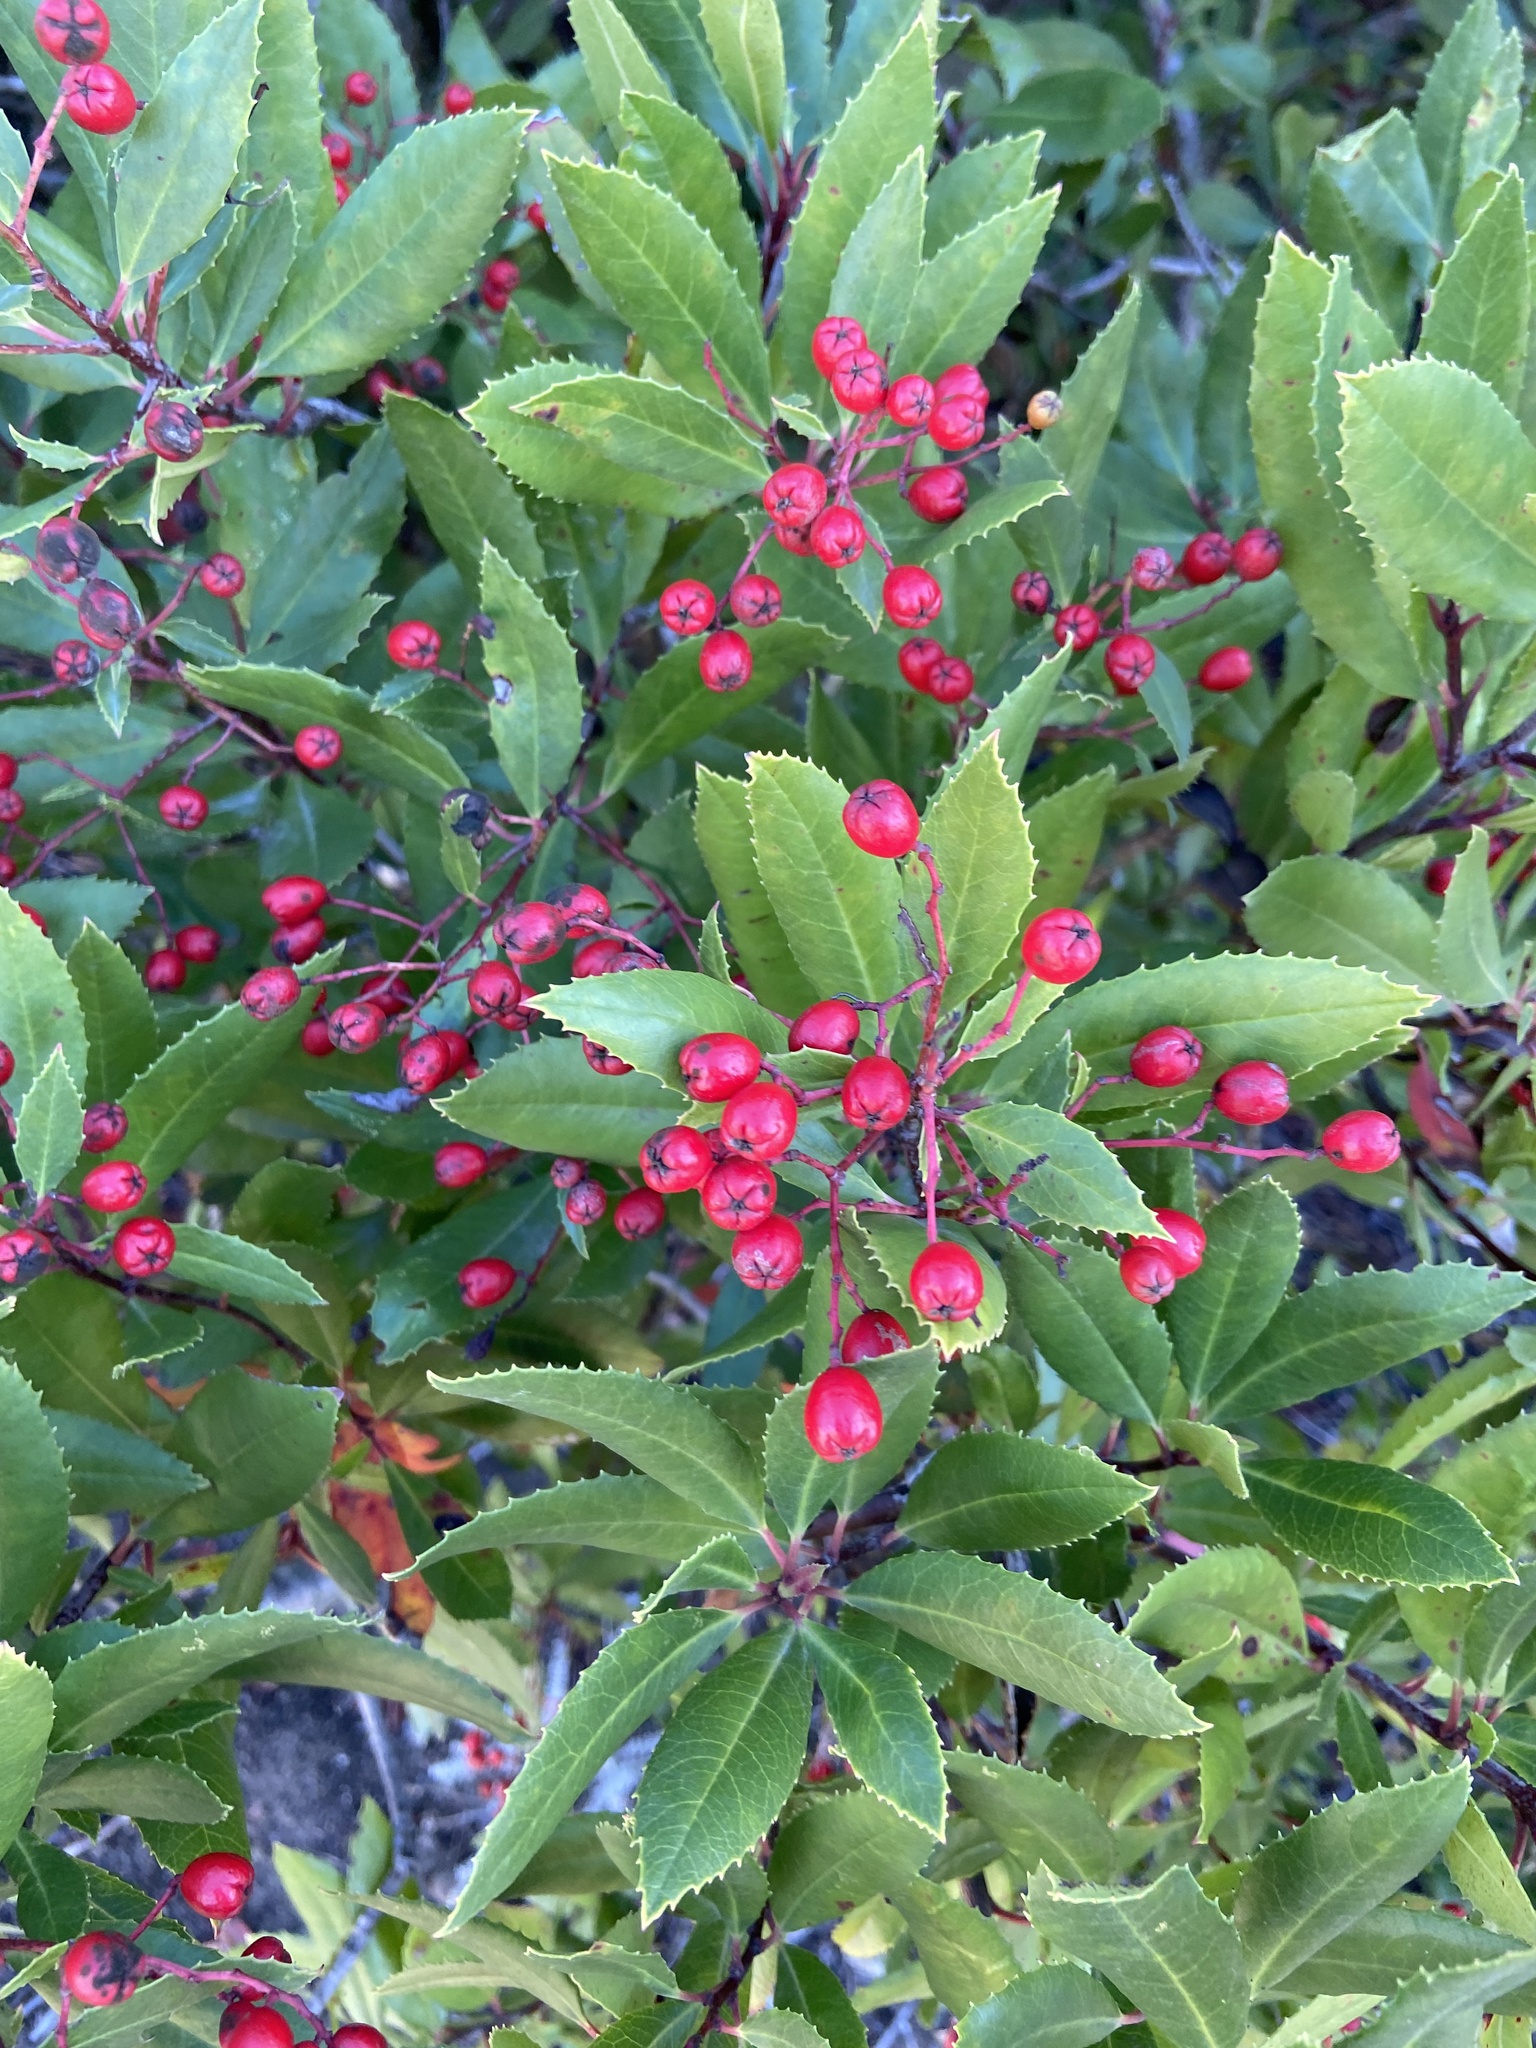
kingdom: Plantae
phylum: Tracheophyta
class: Magnoliopsida
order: Rosales
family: Rosaceae
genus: Heteromeles
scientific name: Heteromeles arbutifolia
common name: California-holly
